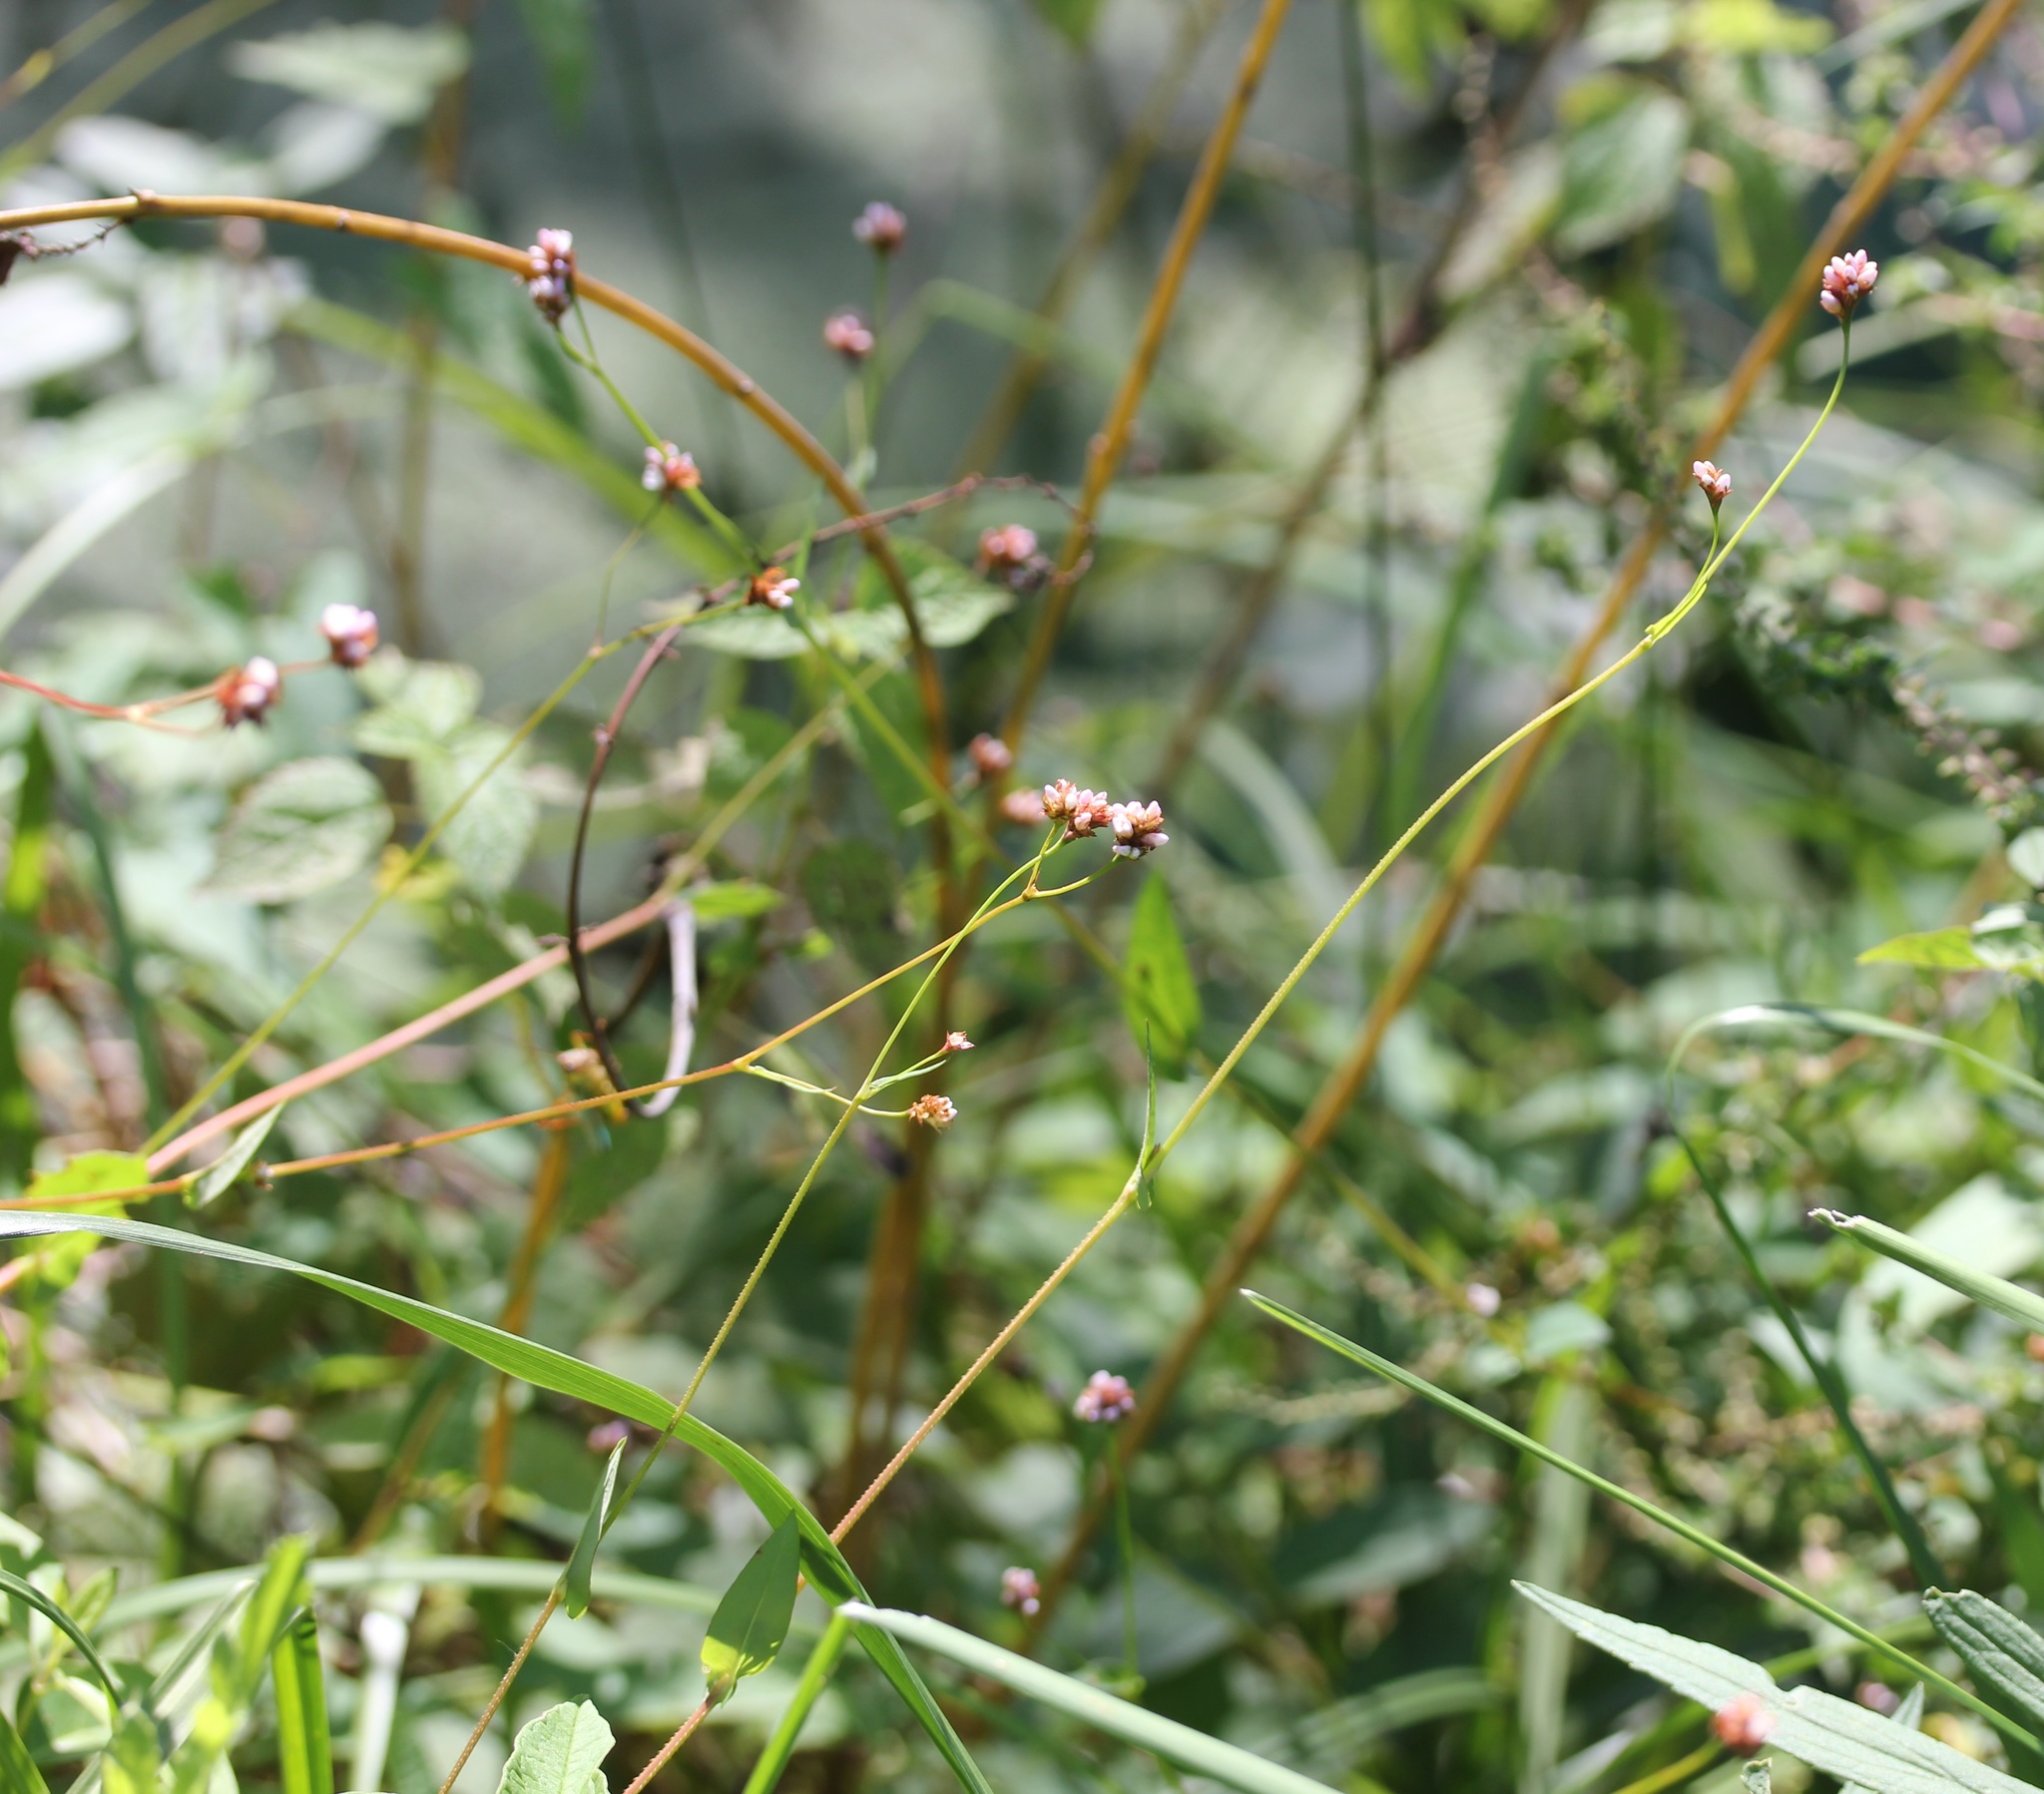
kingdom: Plantae
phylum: Tracheophyta
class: Magnoliopsida
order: Caryophyllales
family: Polygonaceae
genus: Persicaria
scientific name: Persicaria sagittata
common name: American tearthumb
